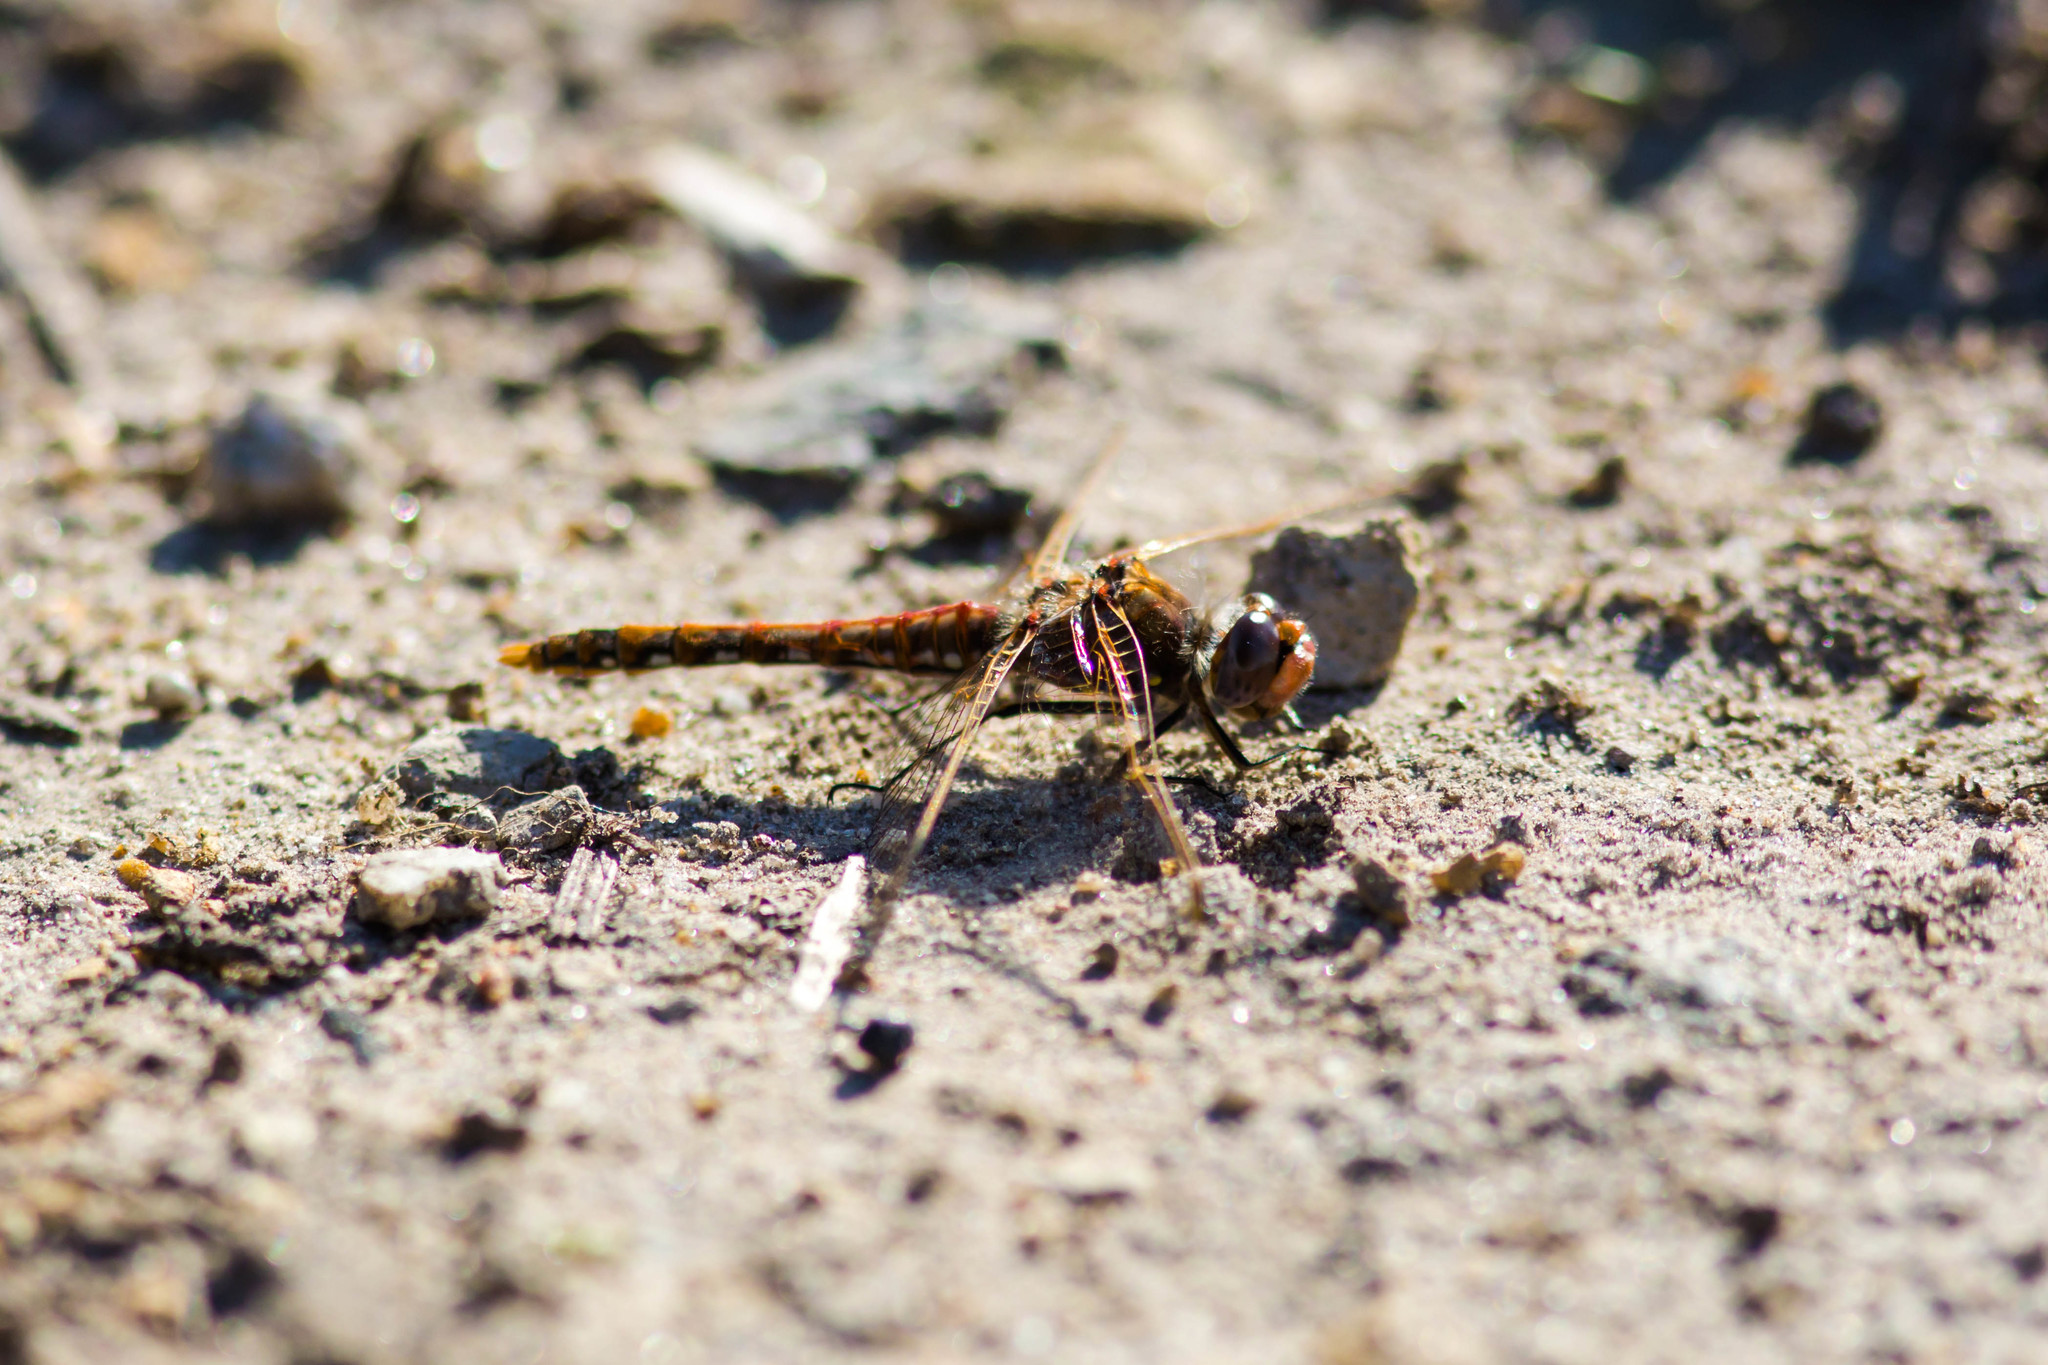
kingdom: Animalia
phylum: Arthropoda
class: Insecta
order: Odonata
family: Libellulidae
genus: Sympetrum
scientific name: Sympetrum corruptum
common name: Variegated meadowhawk
